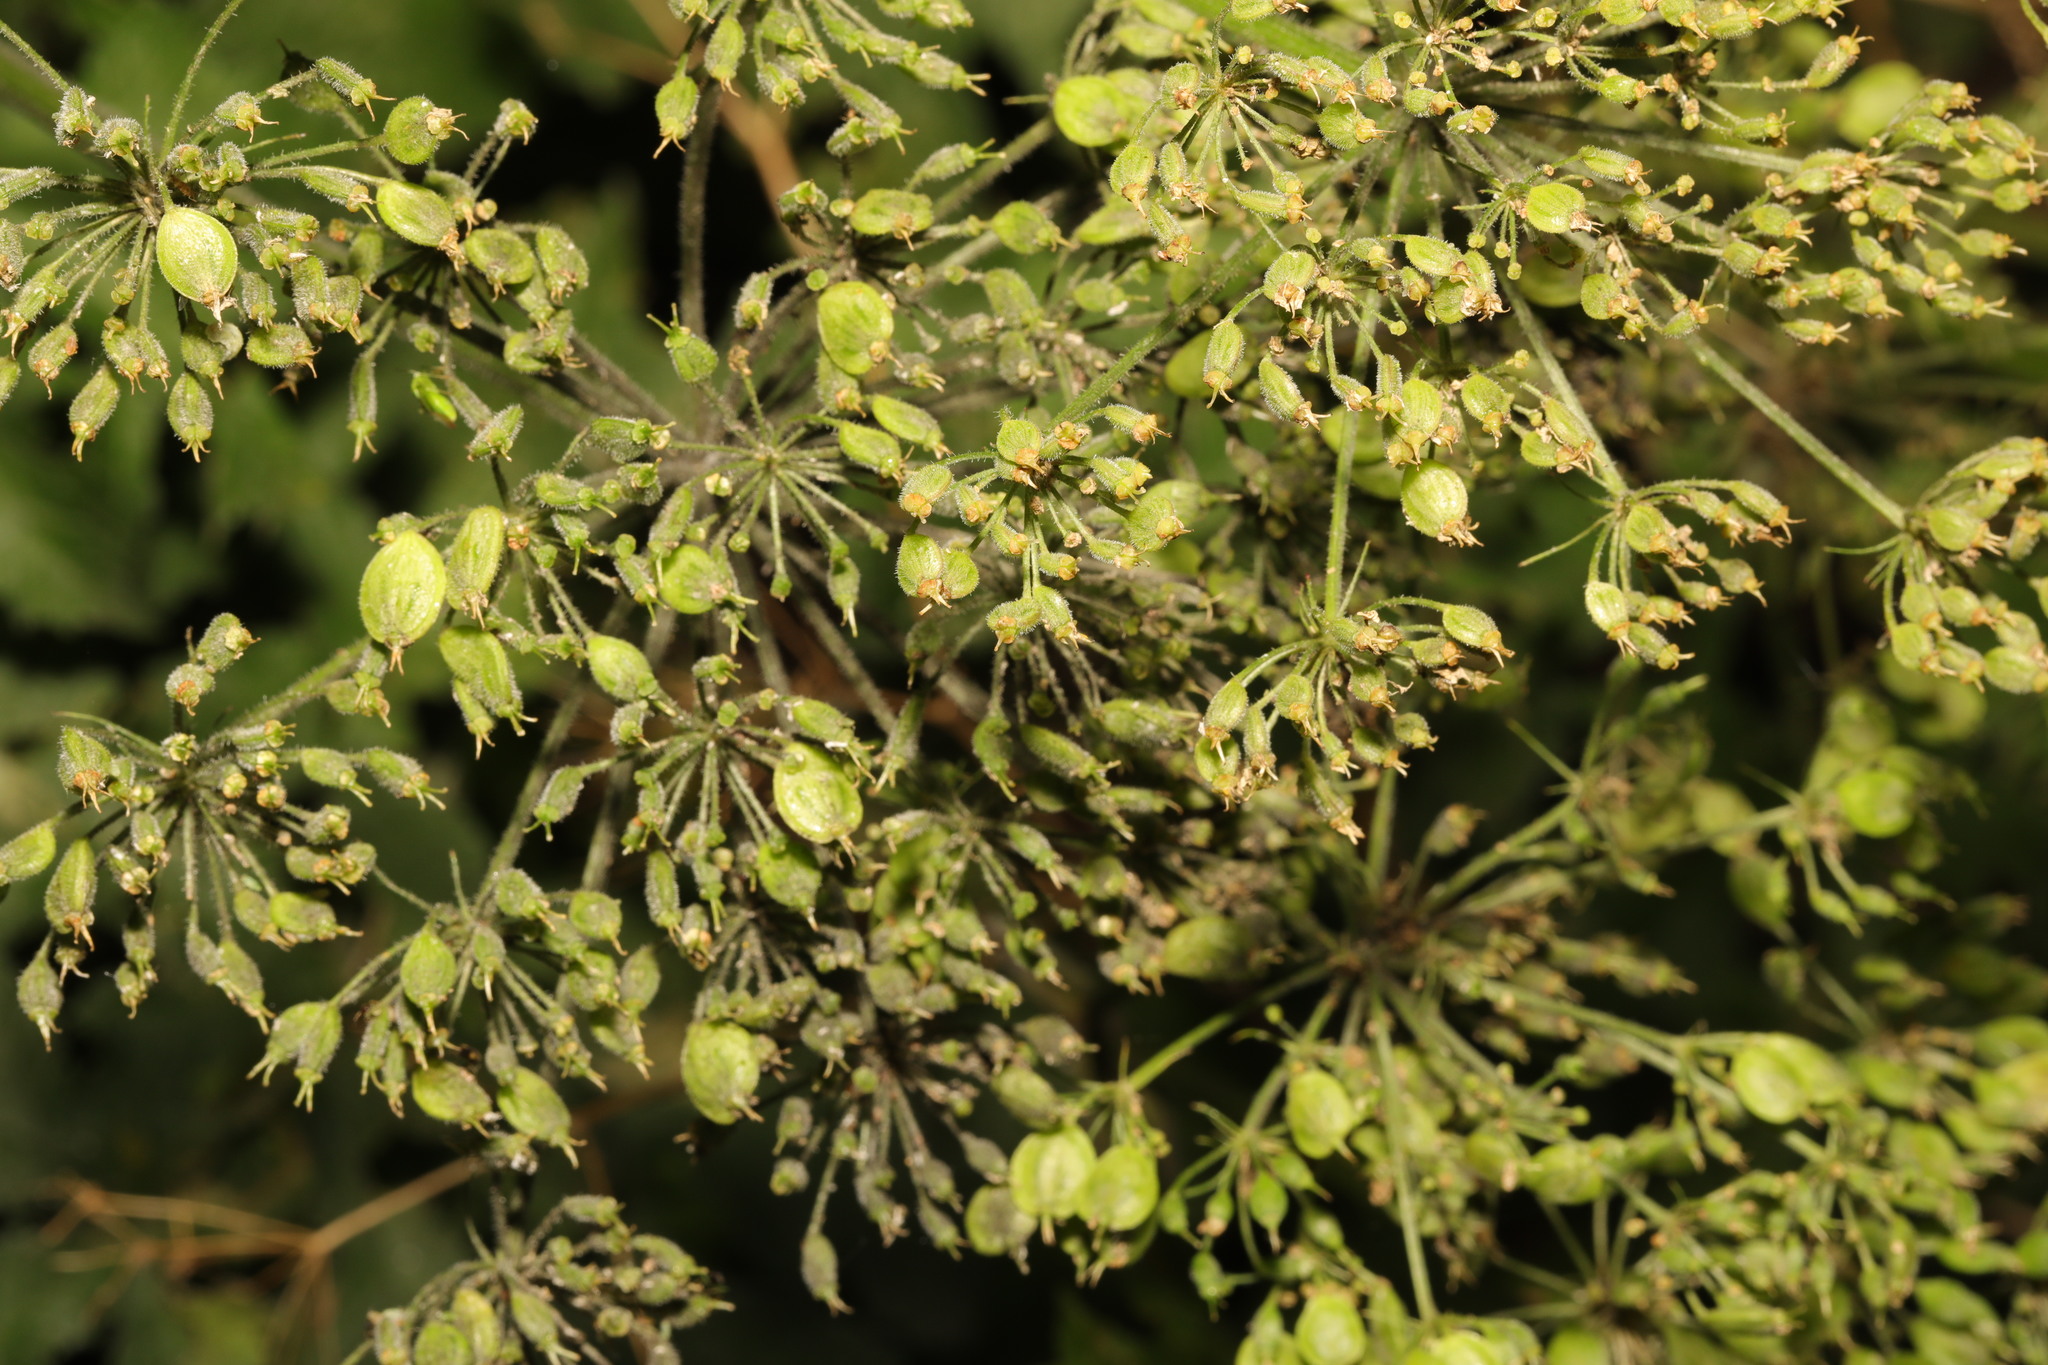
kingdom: Plantae
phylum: Tracheophyta
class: Magnoliopsida
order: Apiales
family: Apiaceae
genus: Heracleum
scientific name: Heracleum sphondylium
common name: Hogweed
